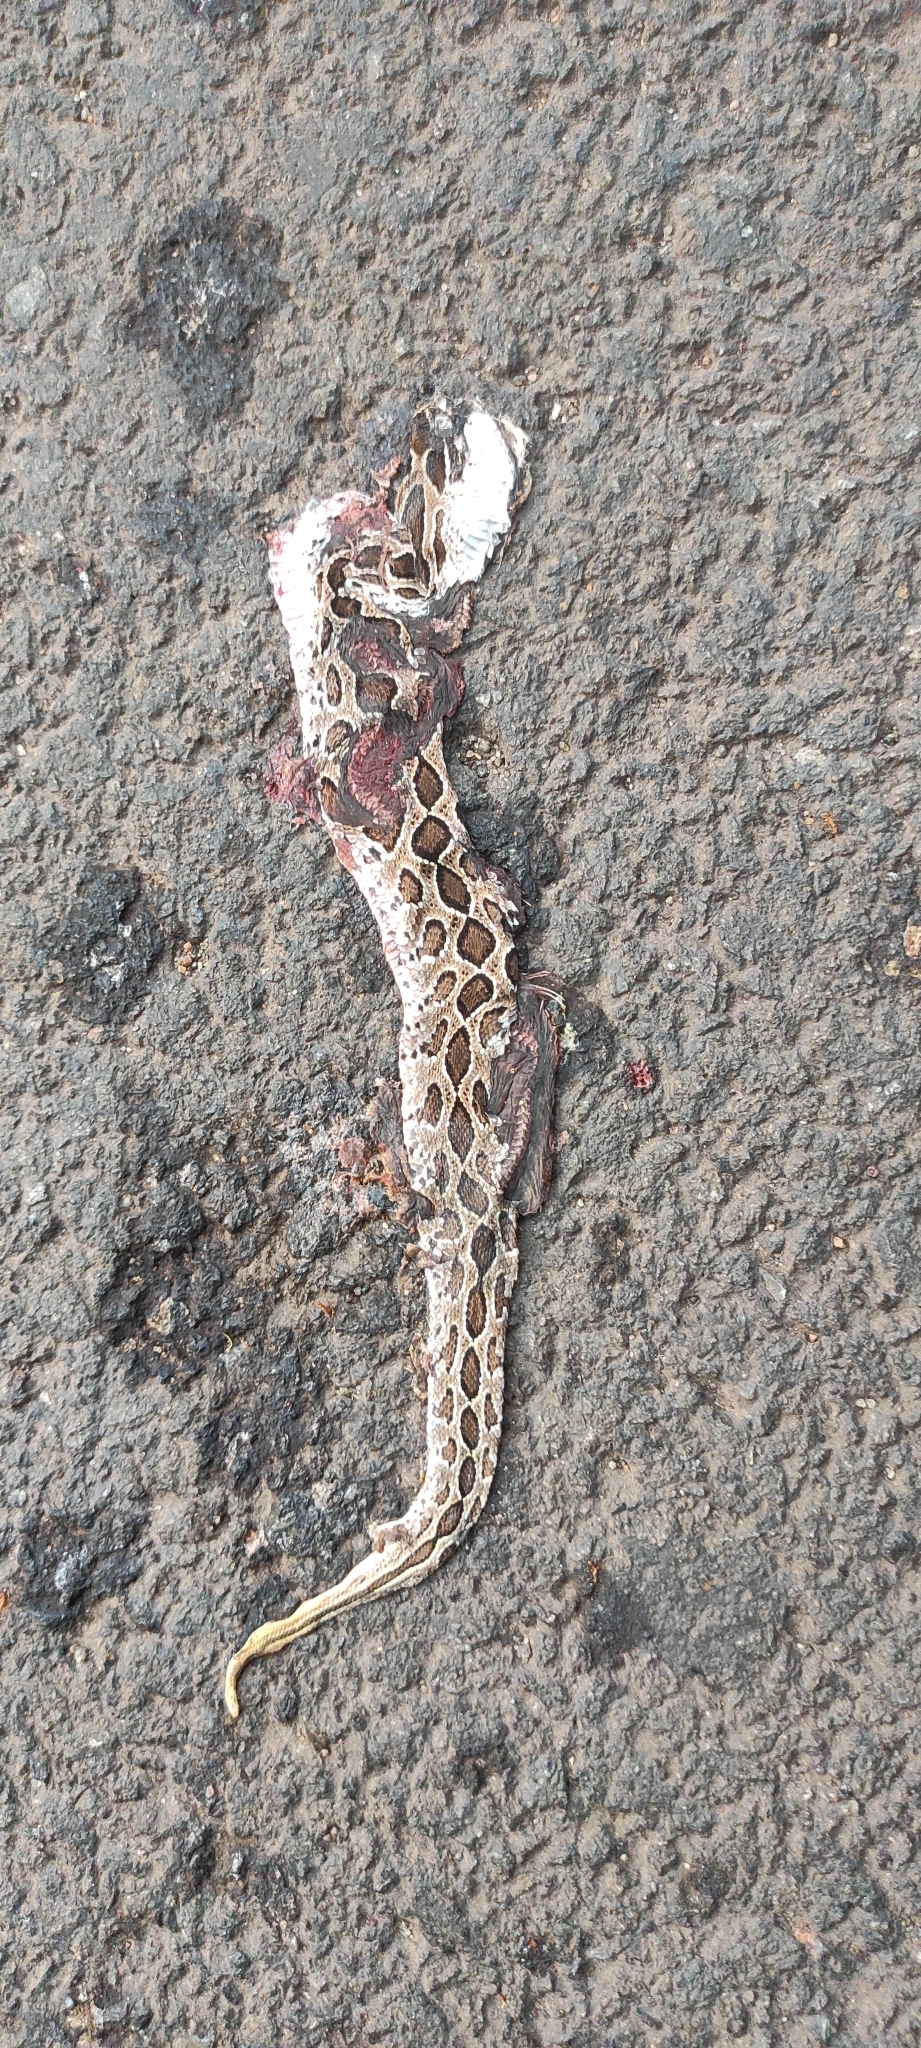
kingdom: Animalia
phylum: Chordata
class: Squamata
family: Viperidae
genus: Daboia
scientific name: Daboia russelii
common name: Western russel’s viper
